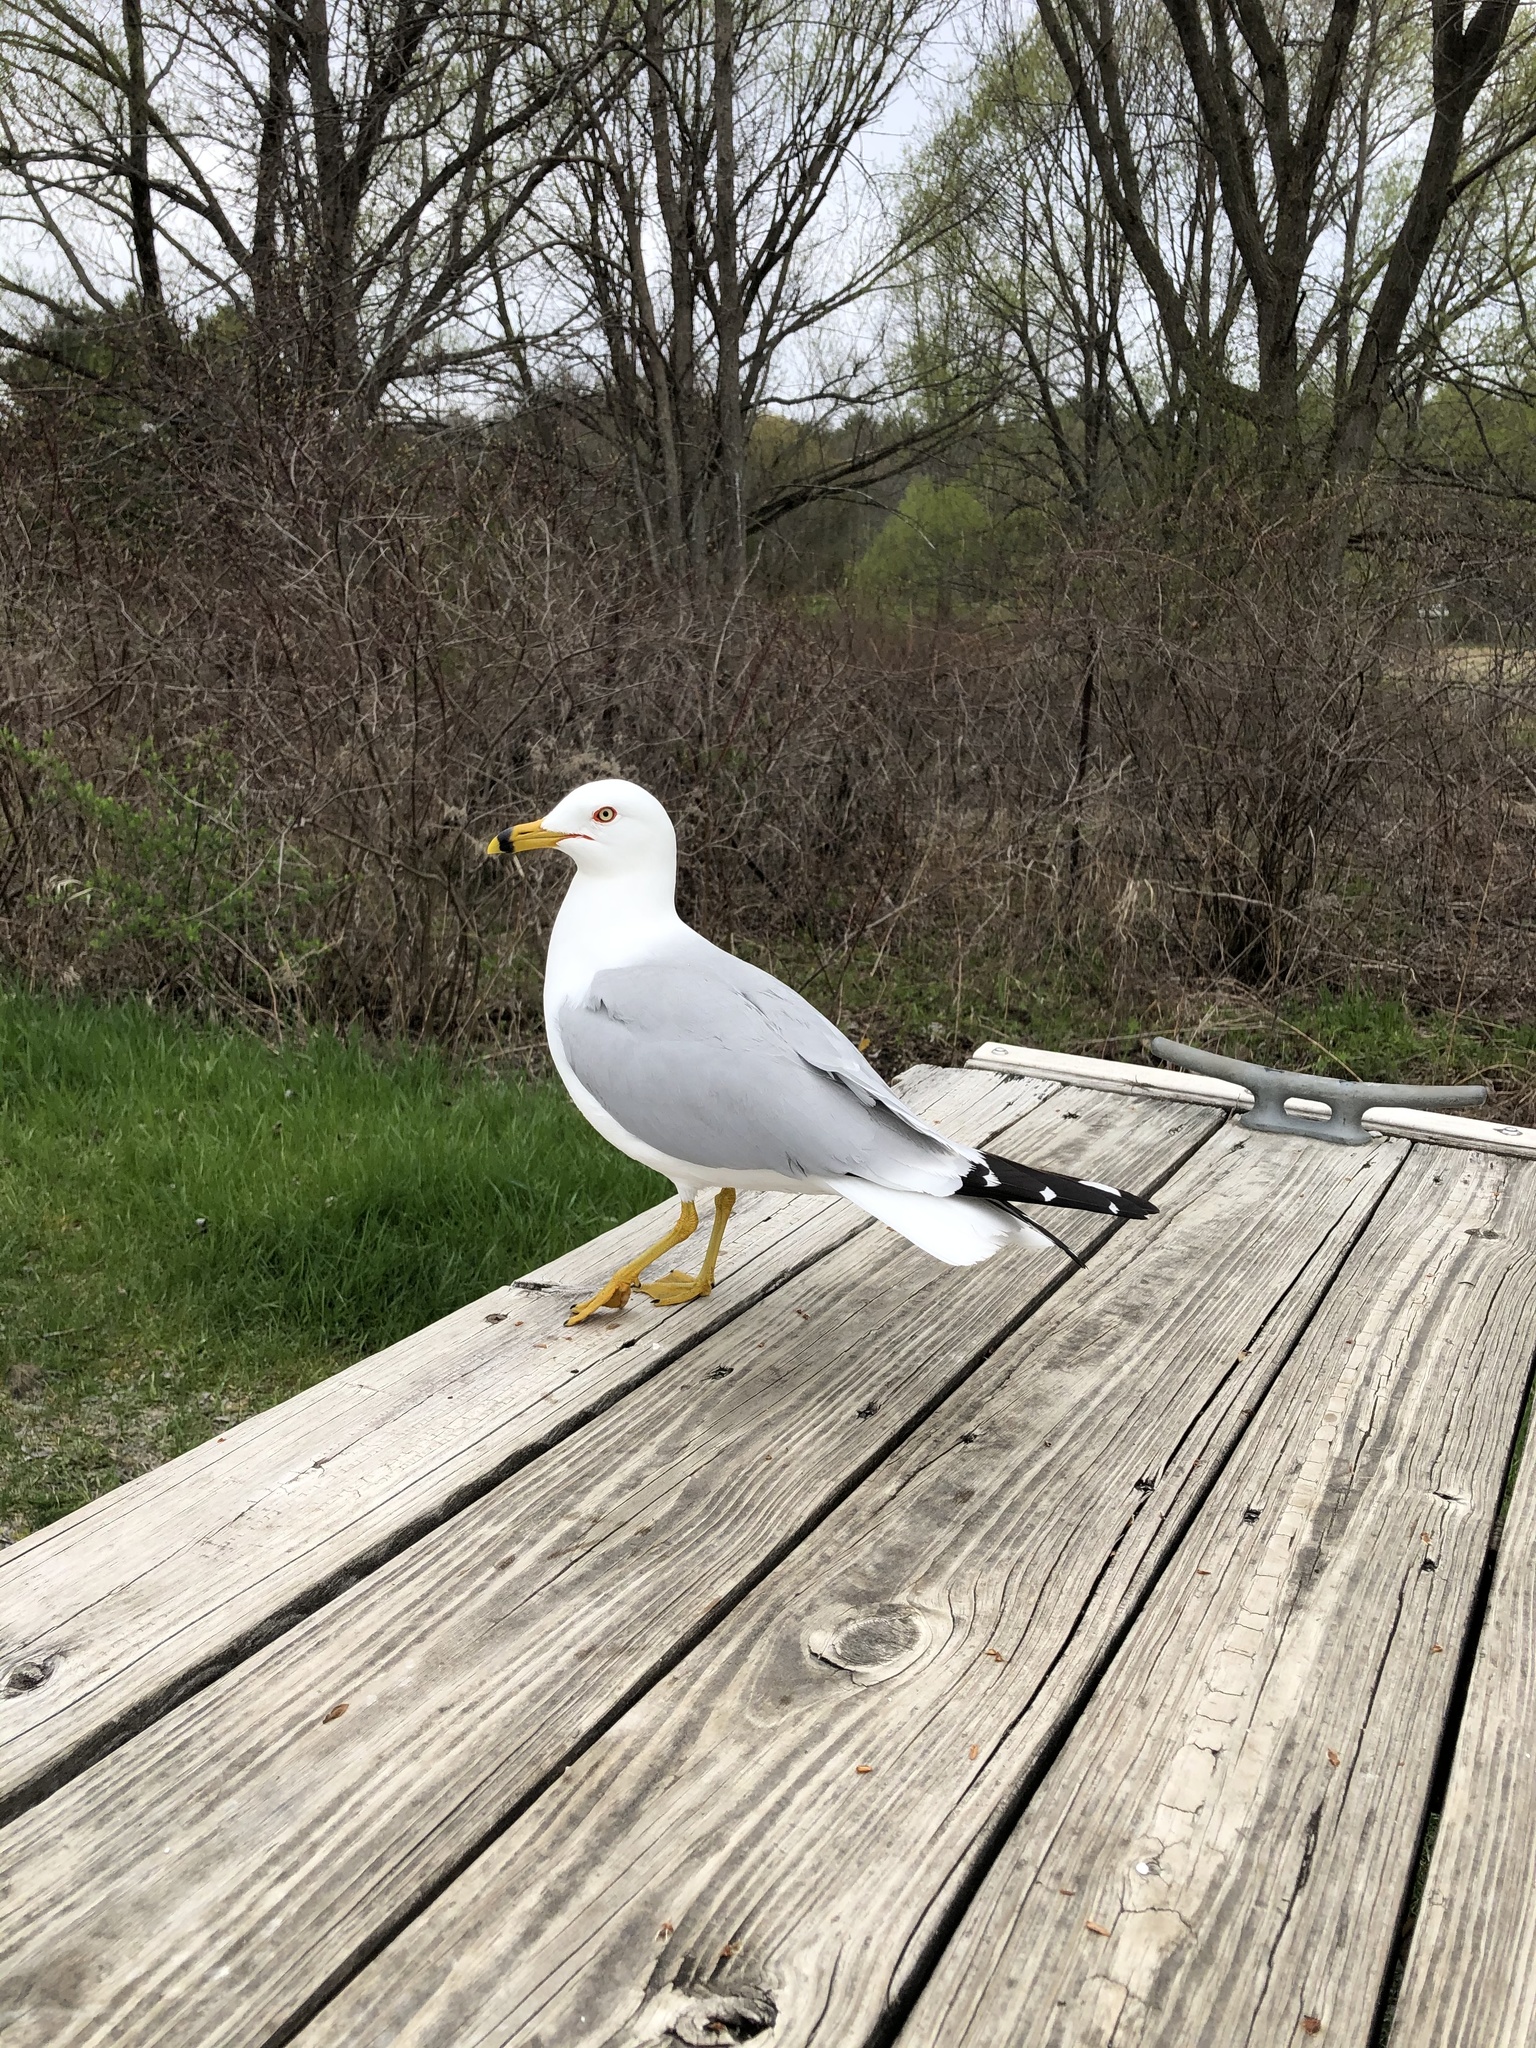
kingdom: Animalia
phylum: Chordata
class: Aves
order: Charadriiformes
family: Laridae
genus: Larus
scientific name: Larus delawarensis
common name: Ring-billed gull
